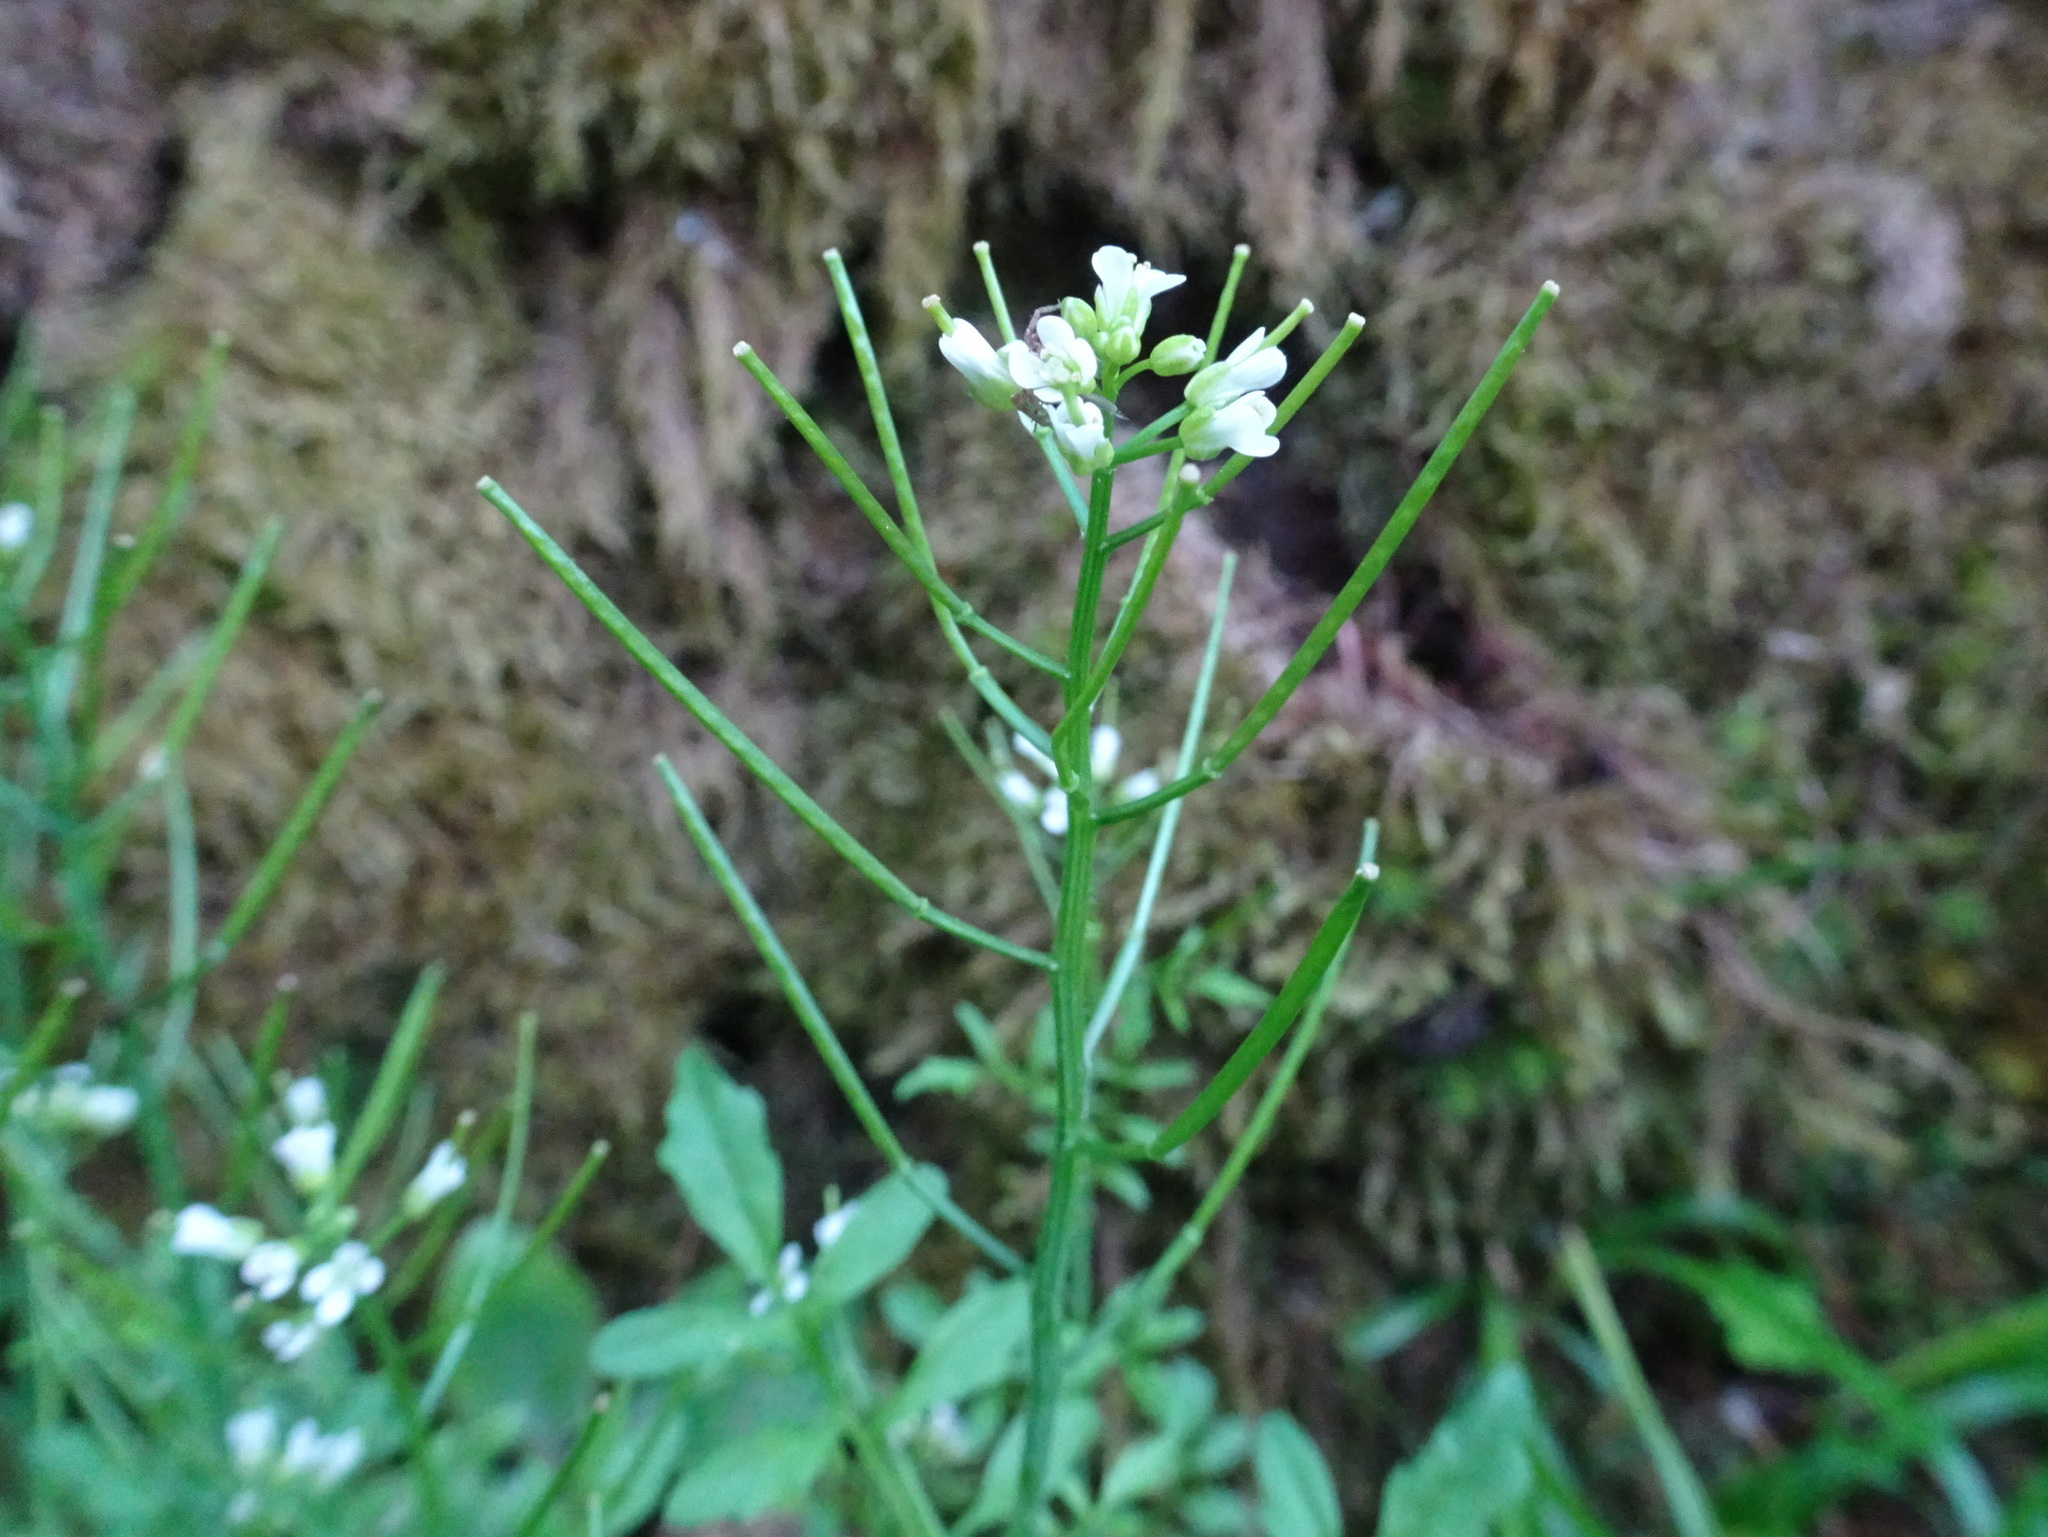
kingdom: Plantae
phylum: Tracheophyta
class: Magnoliopsida
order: Brassicales
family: Brassicaceae
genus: Cardamine
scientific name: Cardamine flexuosa
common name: Woodland bittercress
